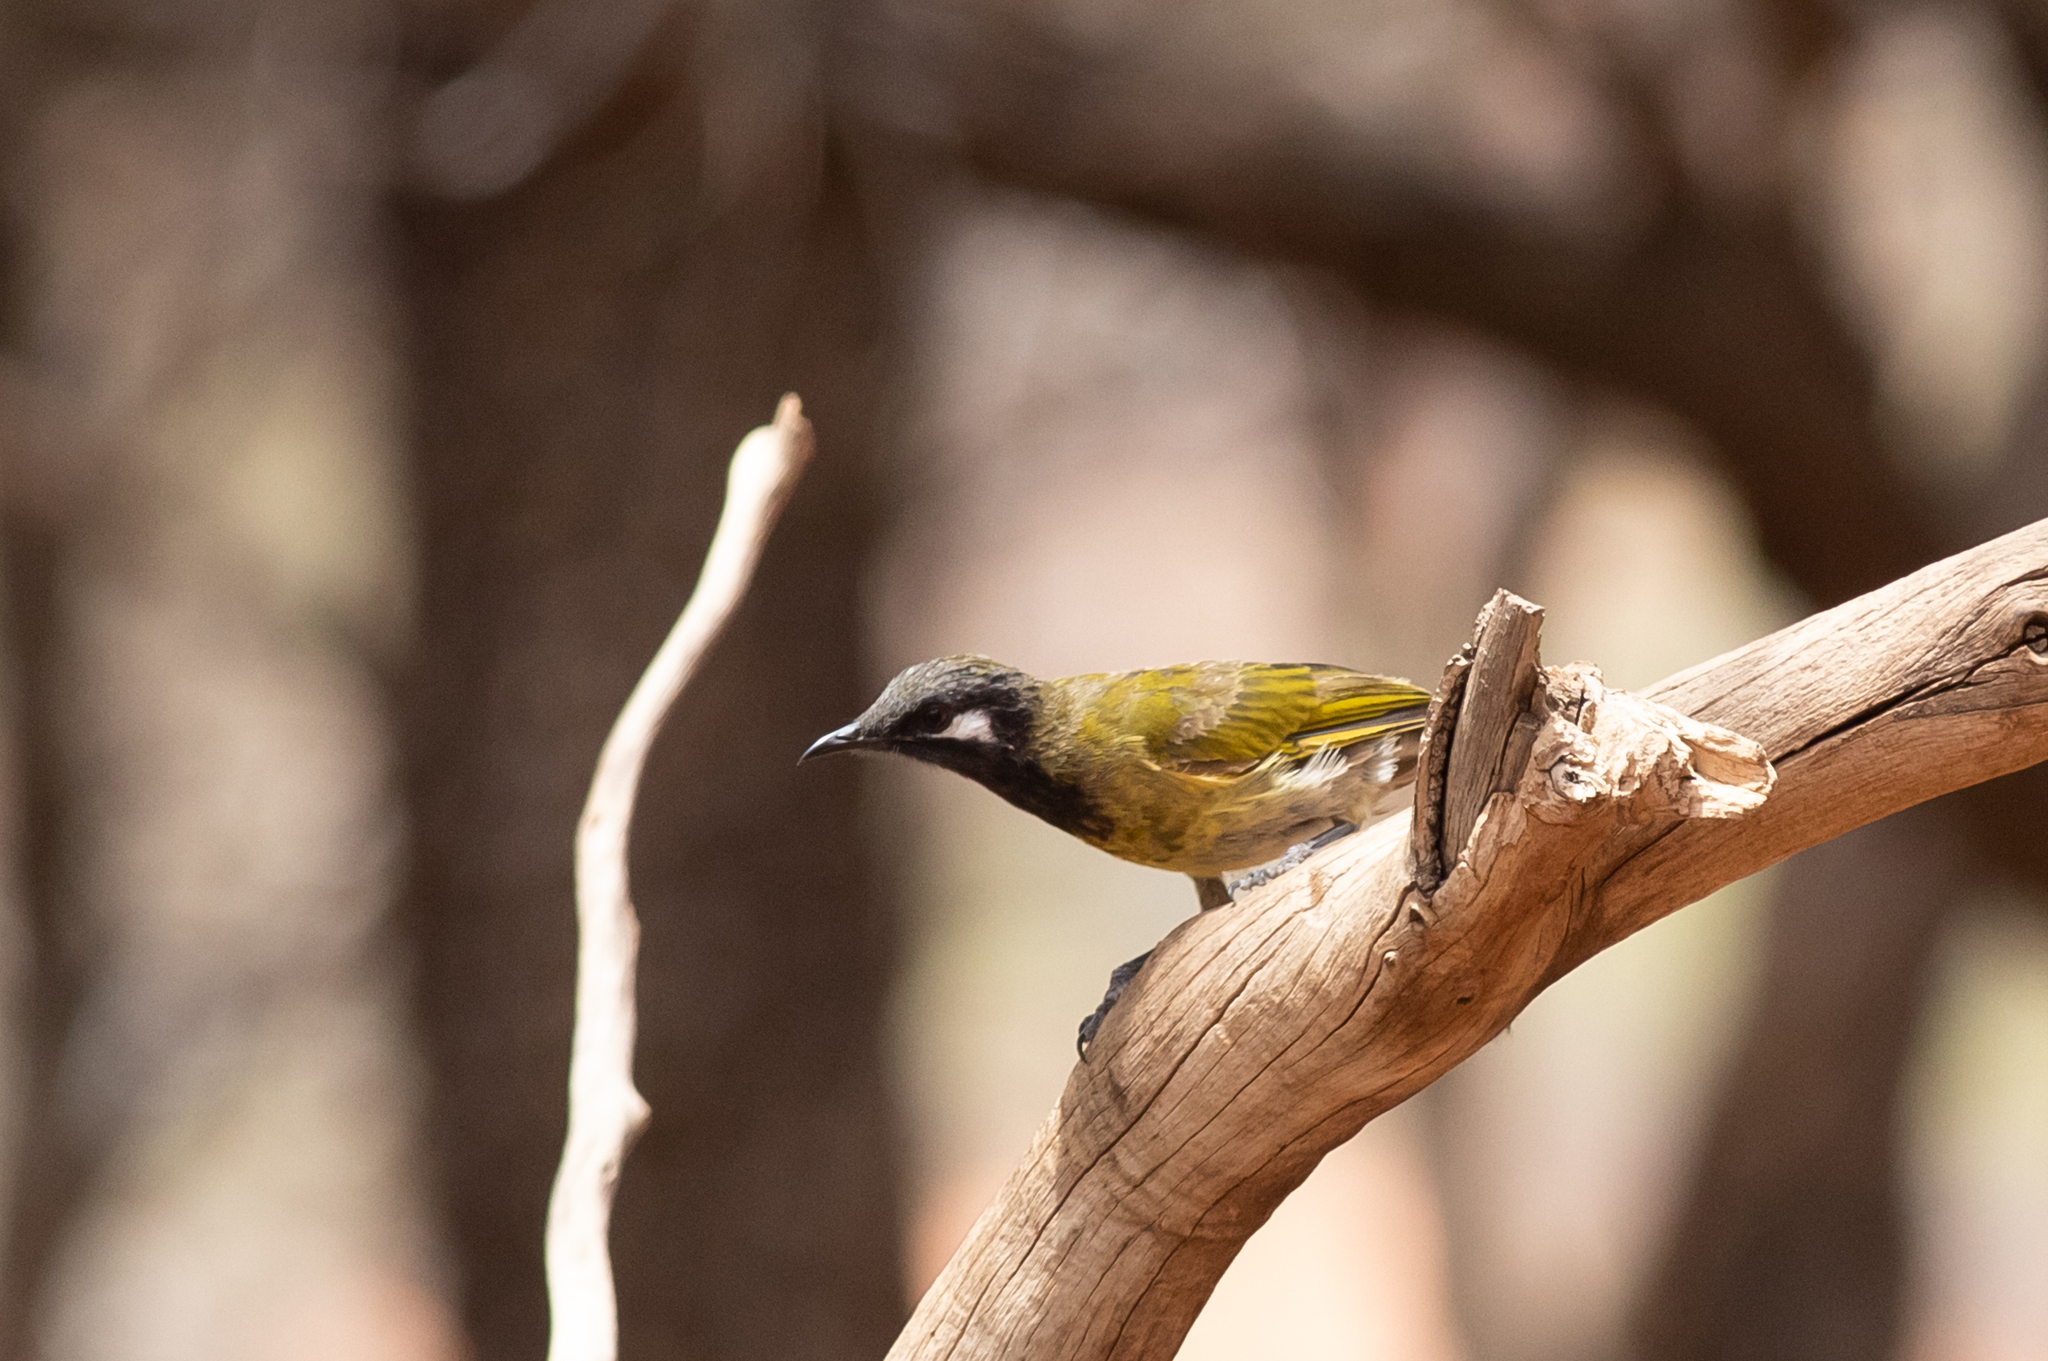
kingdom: Animalia
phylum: Chordata
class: Aves
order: Passeriformes
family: Meliphagidae
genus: Nesoptilotis
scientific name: Nesoptilotis leucotis
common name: White-eared honeyeater
